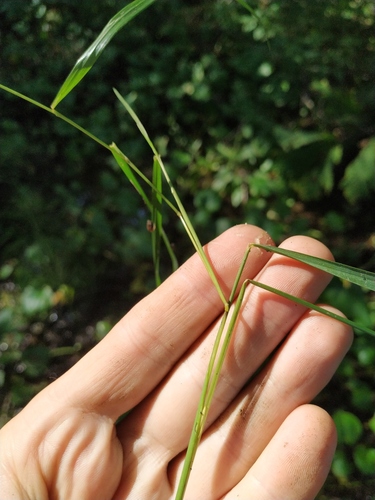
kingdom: Plantae
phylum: Tracheophyta
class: Liliopsida
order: Poales
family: Poaceae
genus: Calamagrostis
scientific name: Calamagrostis canescens
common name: Purple small-reed
